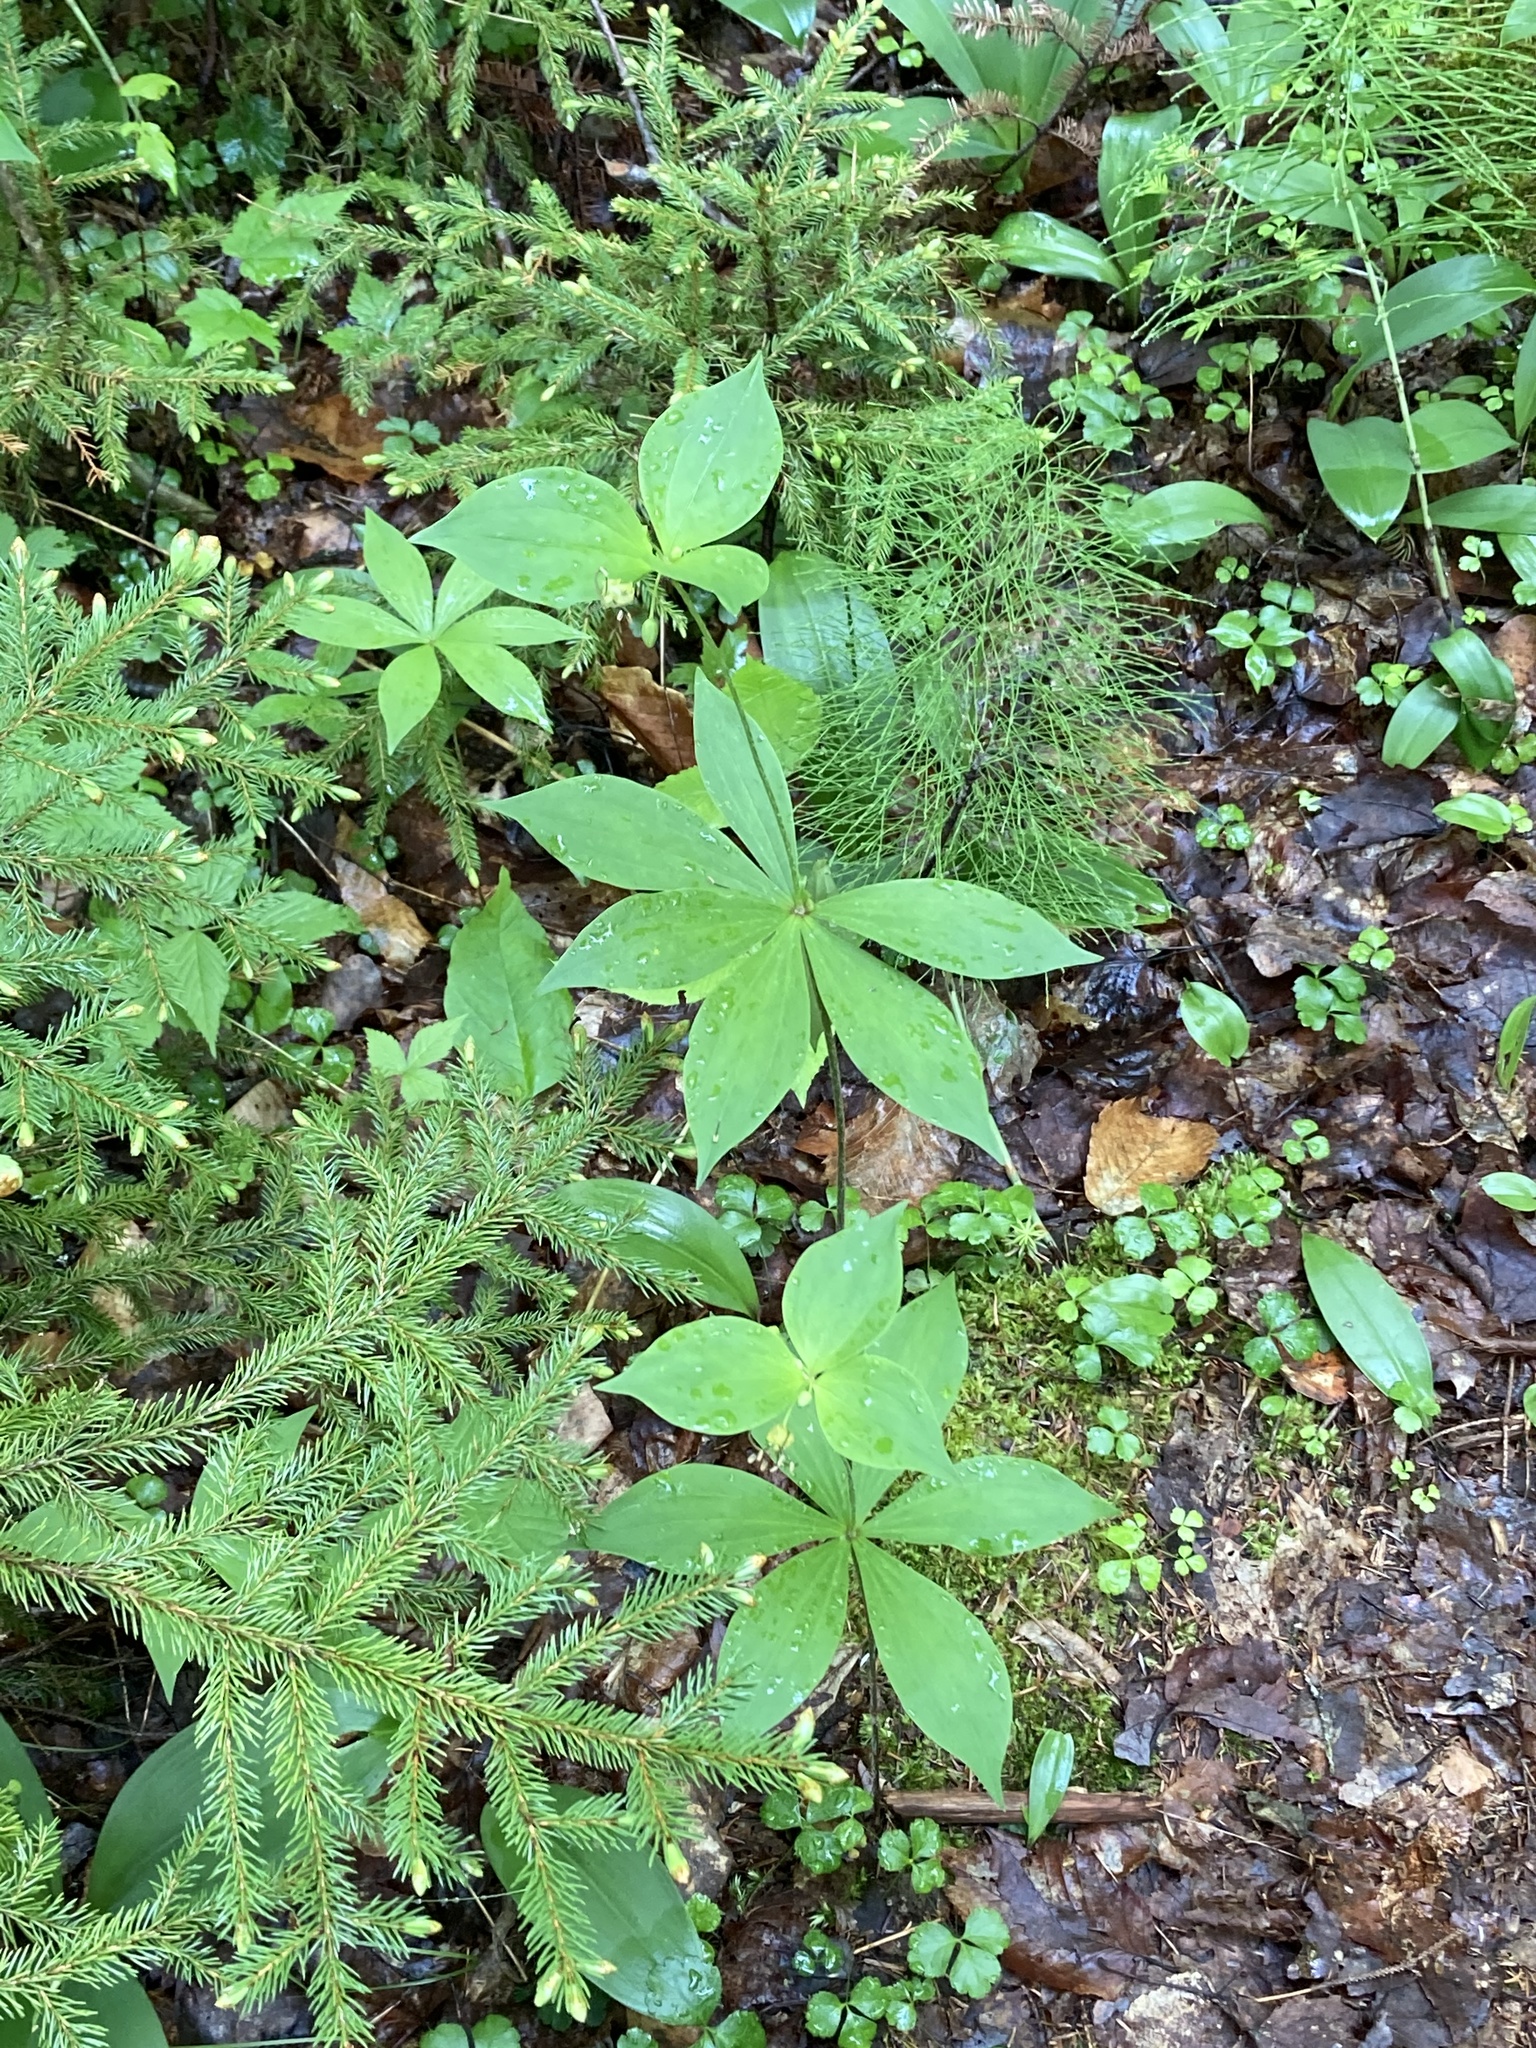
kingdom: Plantae
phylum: Tracheophyta
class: Liliopsida
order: Liliales
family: Liliaceae
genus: Medeola
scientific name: Medeola virginiana
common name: Indian cucumber-root
